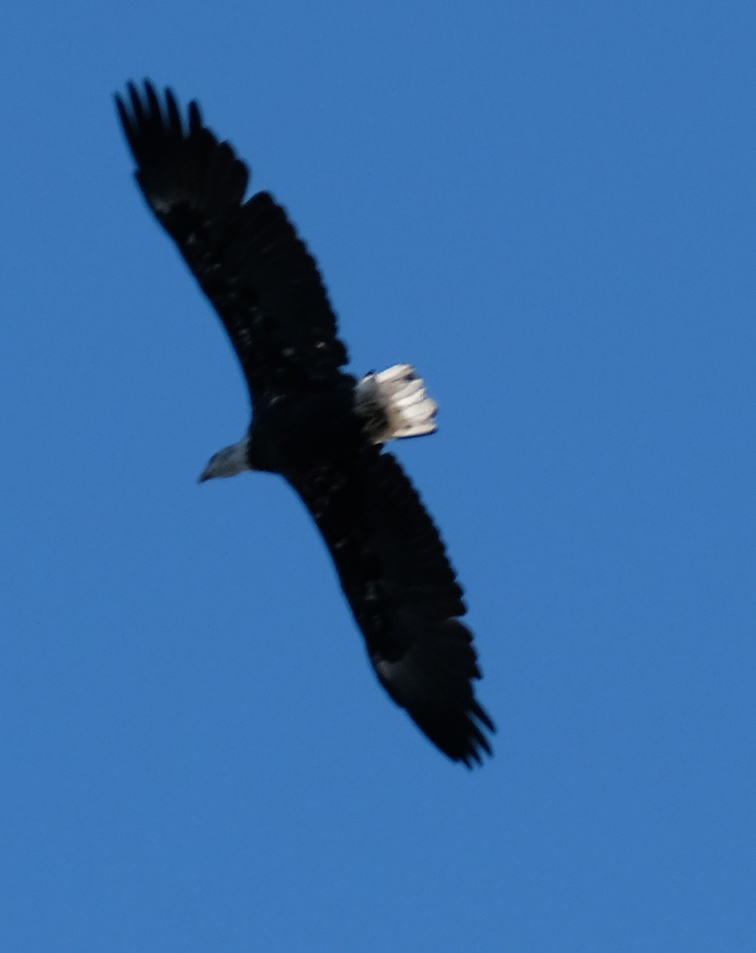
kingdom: Animalia
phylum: Chordata
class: Aves
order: Accipitriformes
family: Accipitridae
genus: Haliaeetus
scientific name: Haliaeetus leucocephalus
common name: Bald eagle
